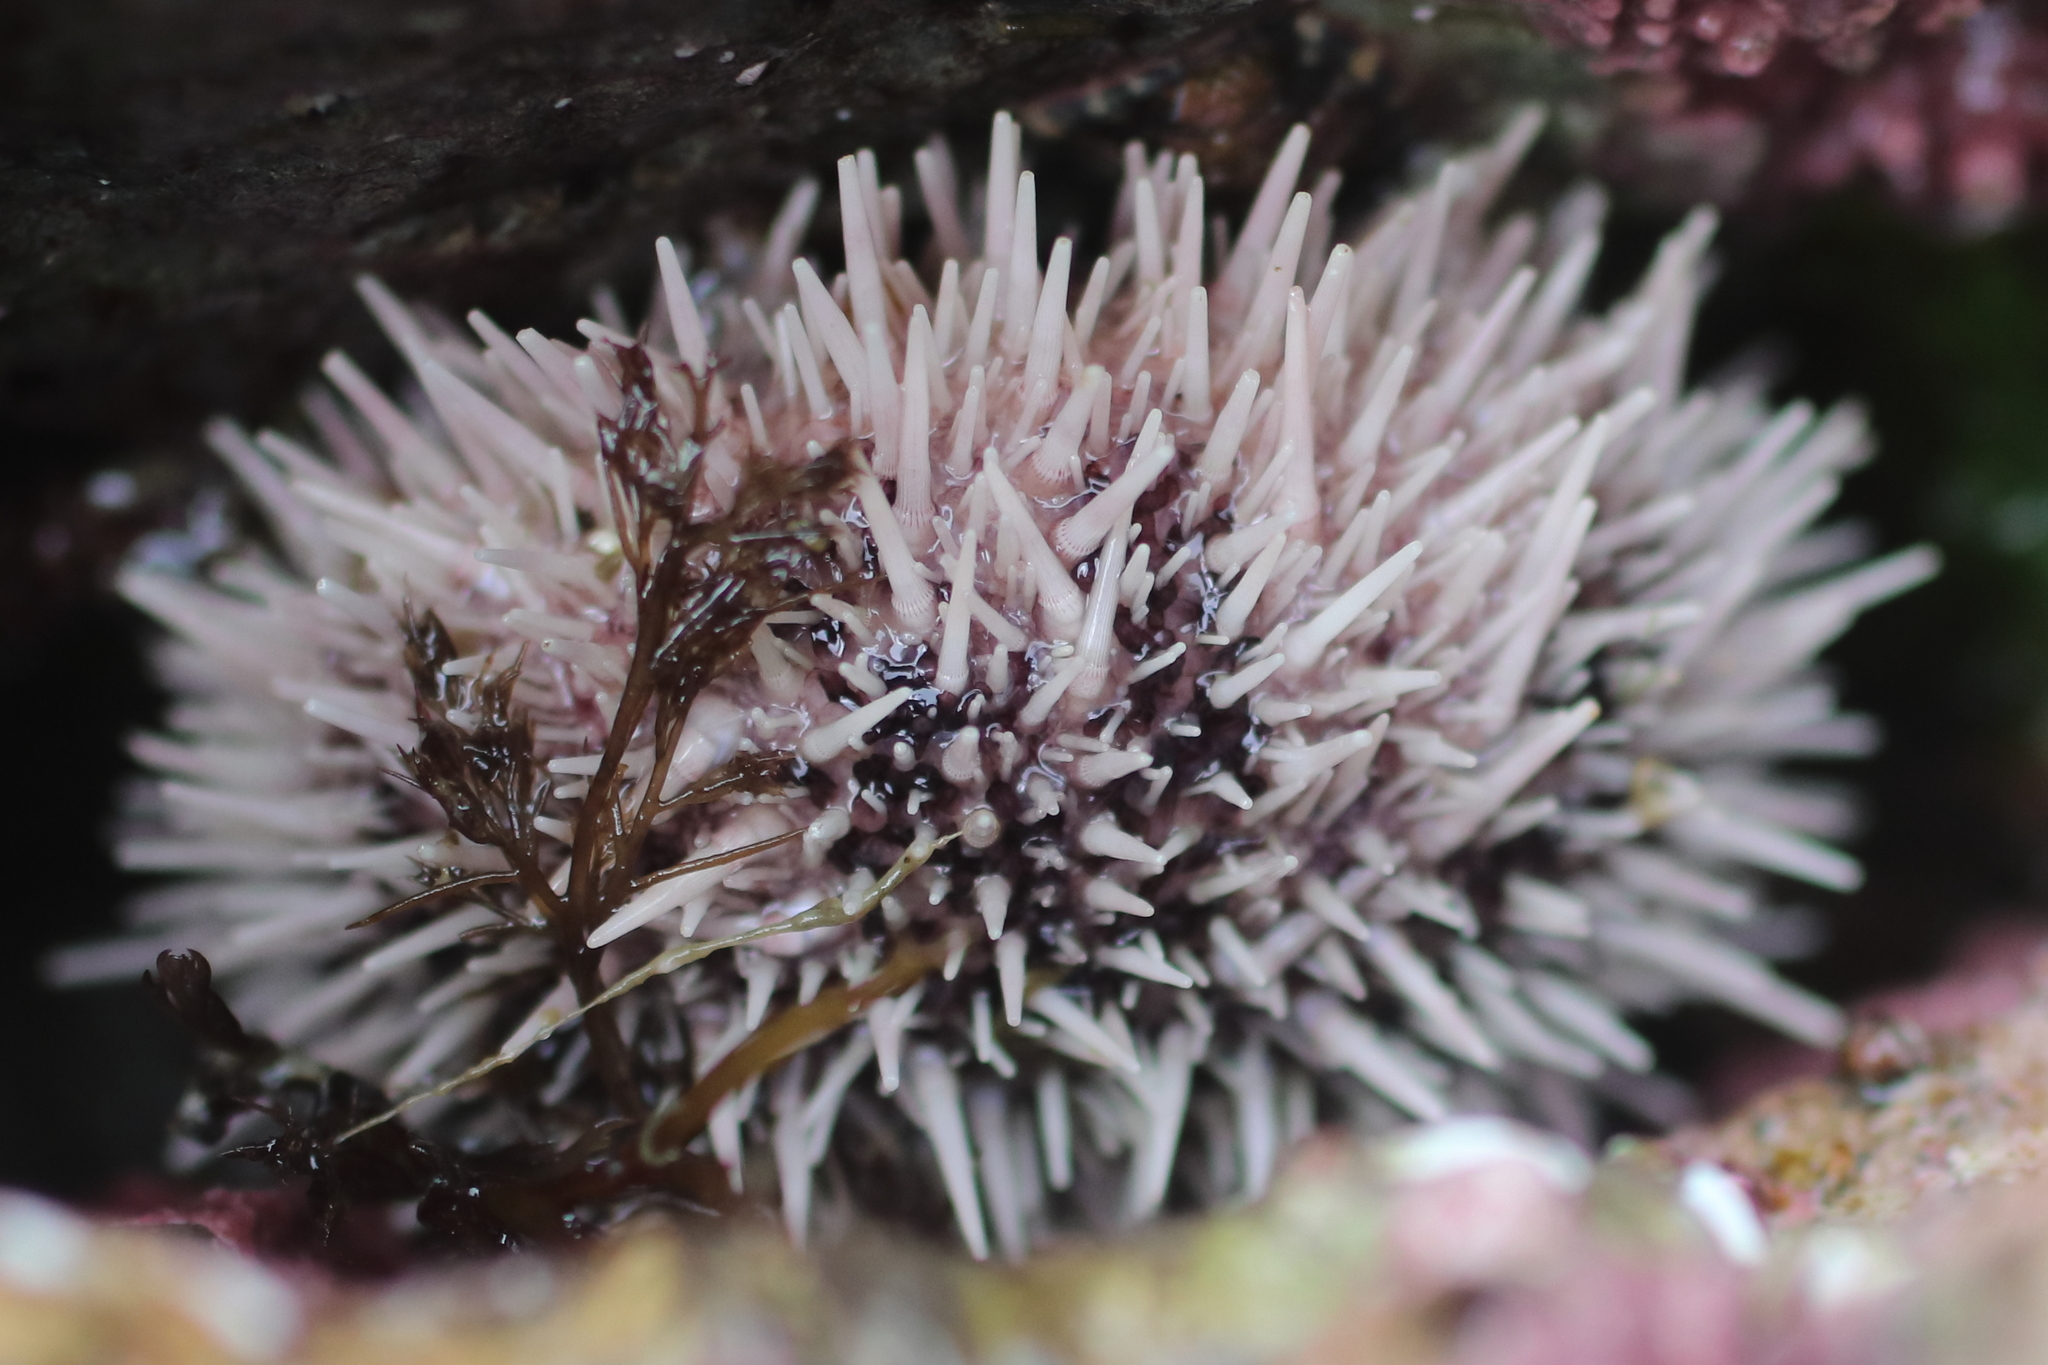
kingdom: Animalia
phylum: Echinodermata
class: Echinoidea
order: Camarodonta
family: Strongylocentrotidae
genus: Strongylocentrotus
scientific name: Strongylocentrotus droebachiensis
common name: Northern sea urchin
